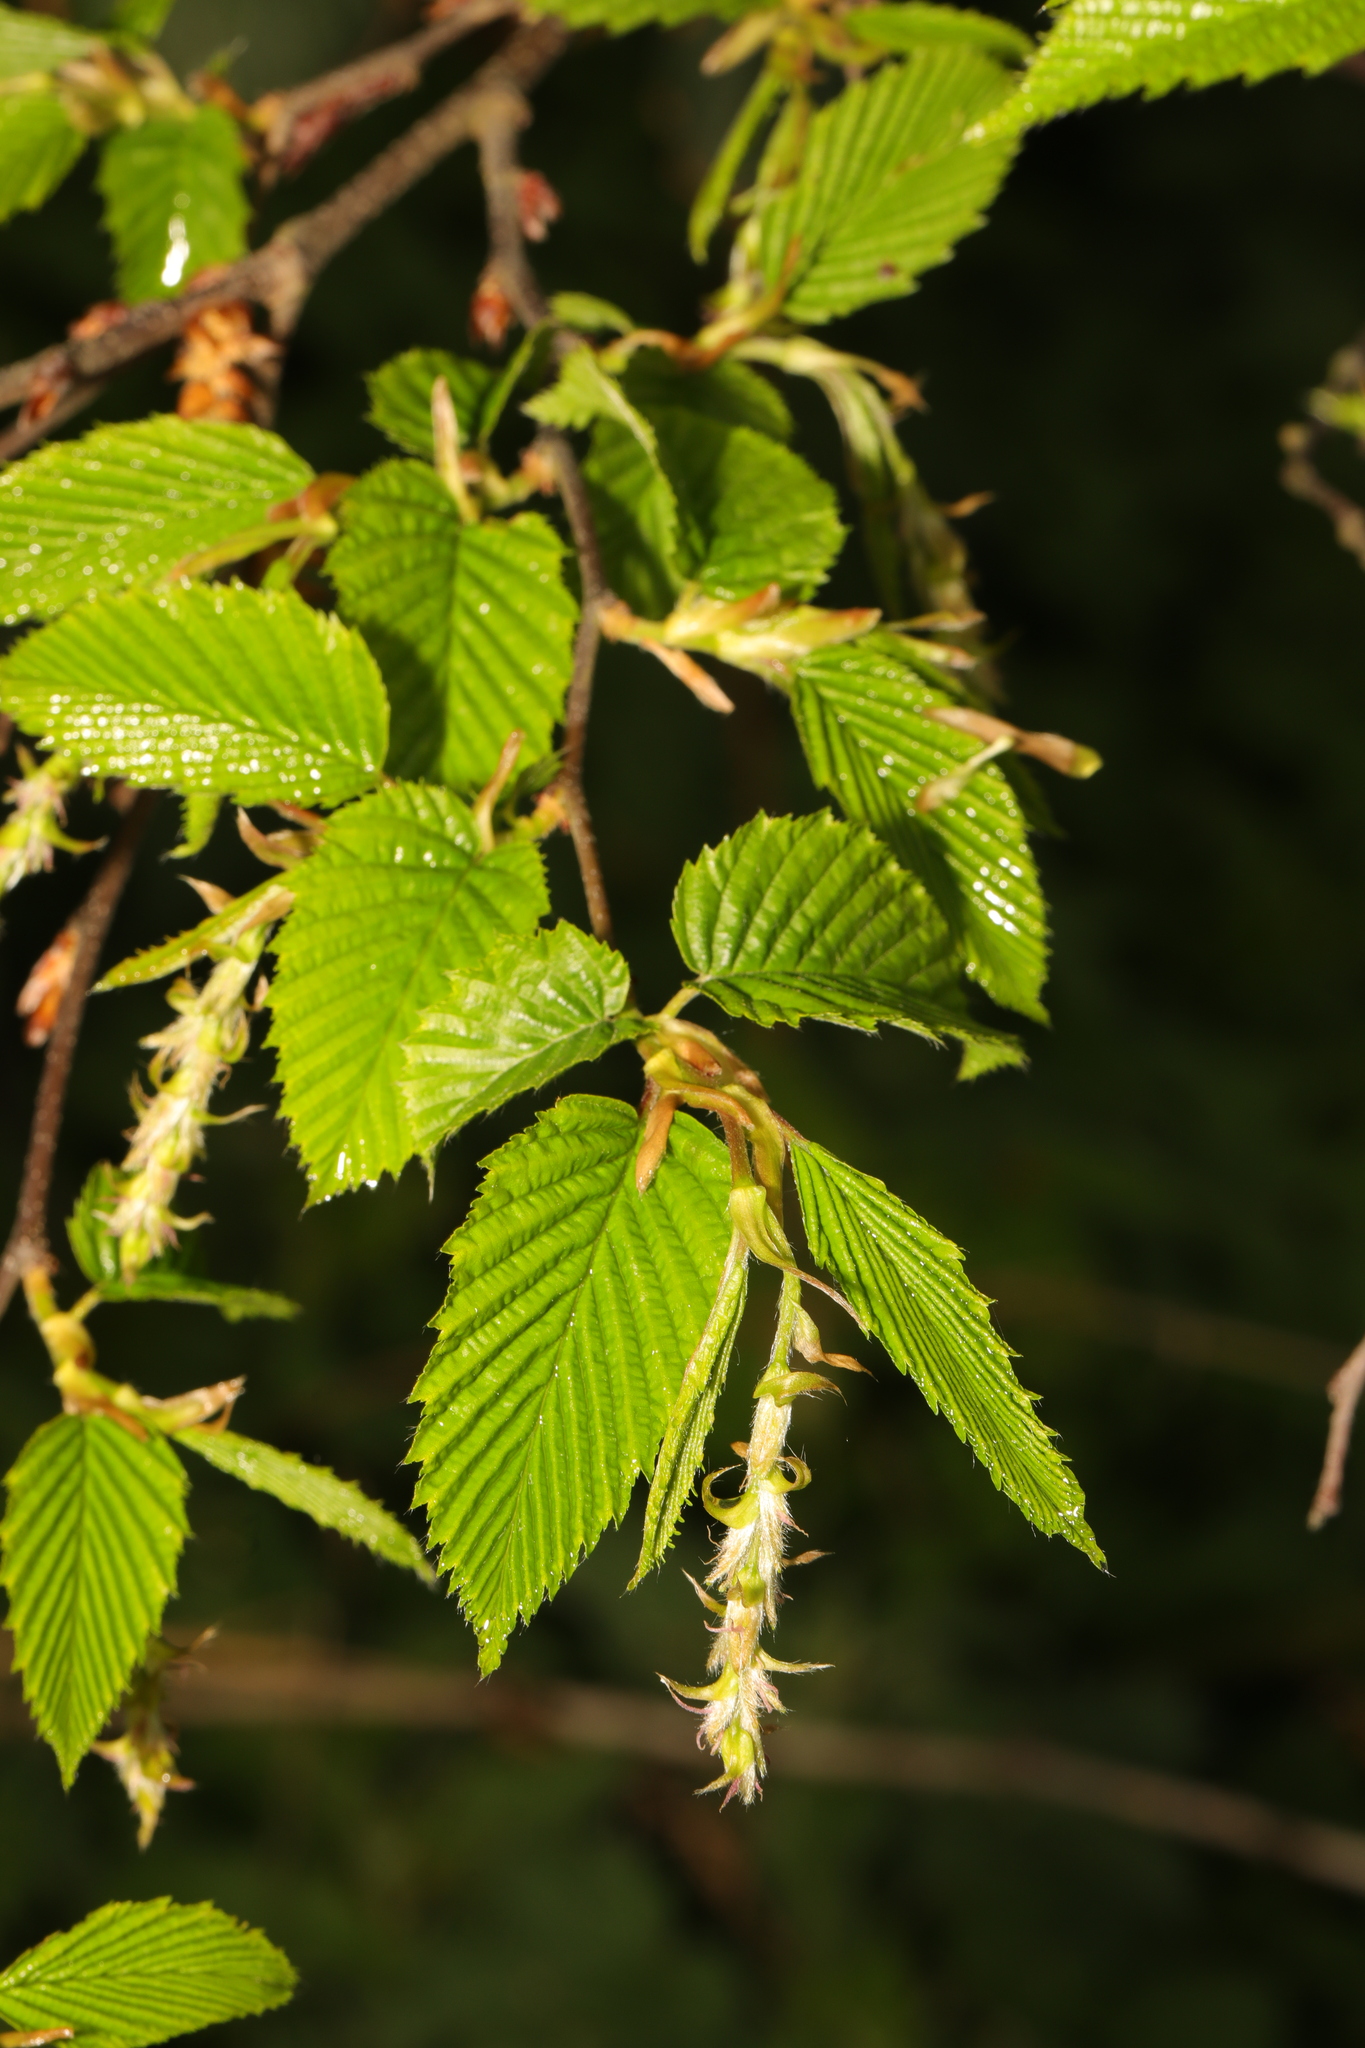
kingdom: Plantae
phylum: Tracheophyta
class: Magnoliopsida
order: Fagales
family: Betulaceae
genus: Carpinus
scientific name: Carpinus betulus
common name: Hornbeam
